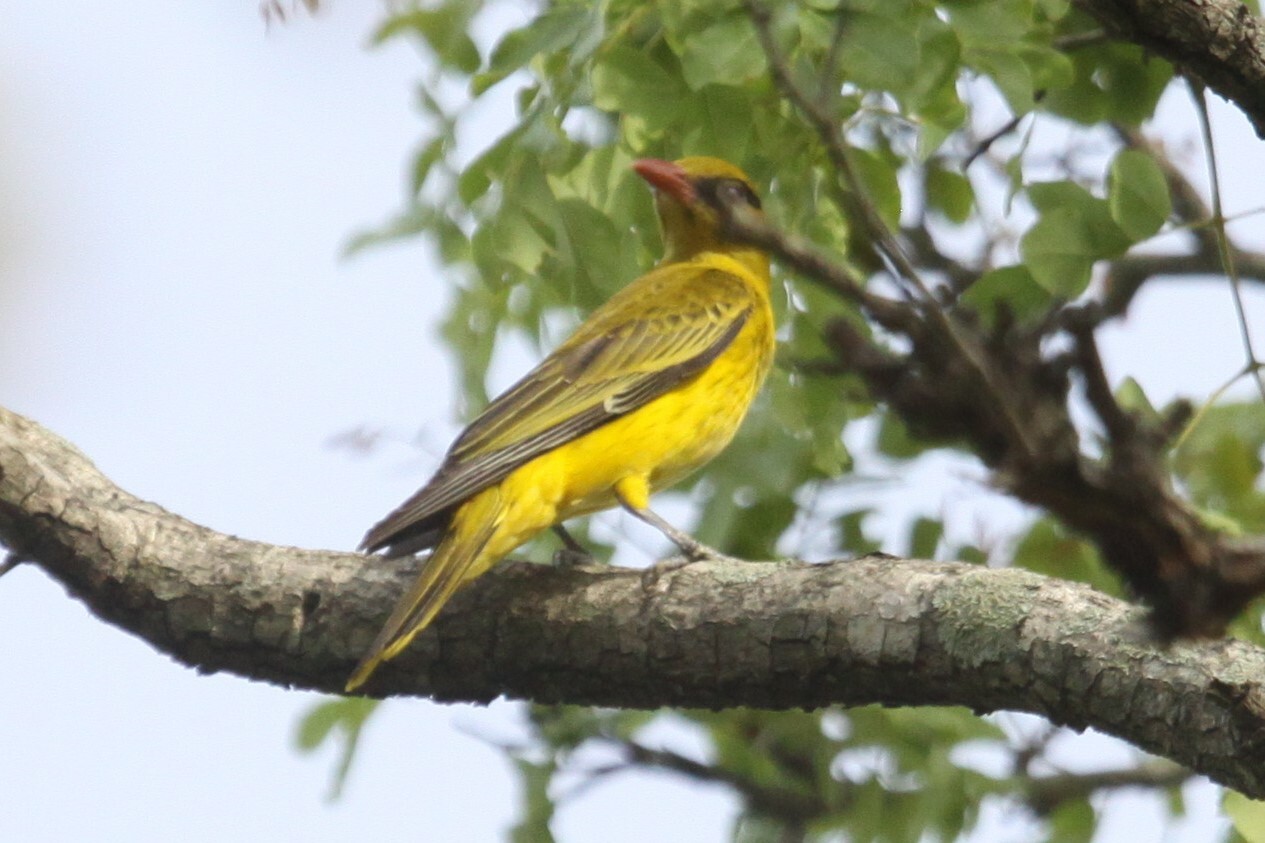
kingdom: Animalia
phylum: Chordata
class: Aves
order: Passeriformes
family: Oriolidae
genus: Oriolus
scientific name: Oriolus auratus
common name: African golden oriole
